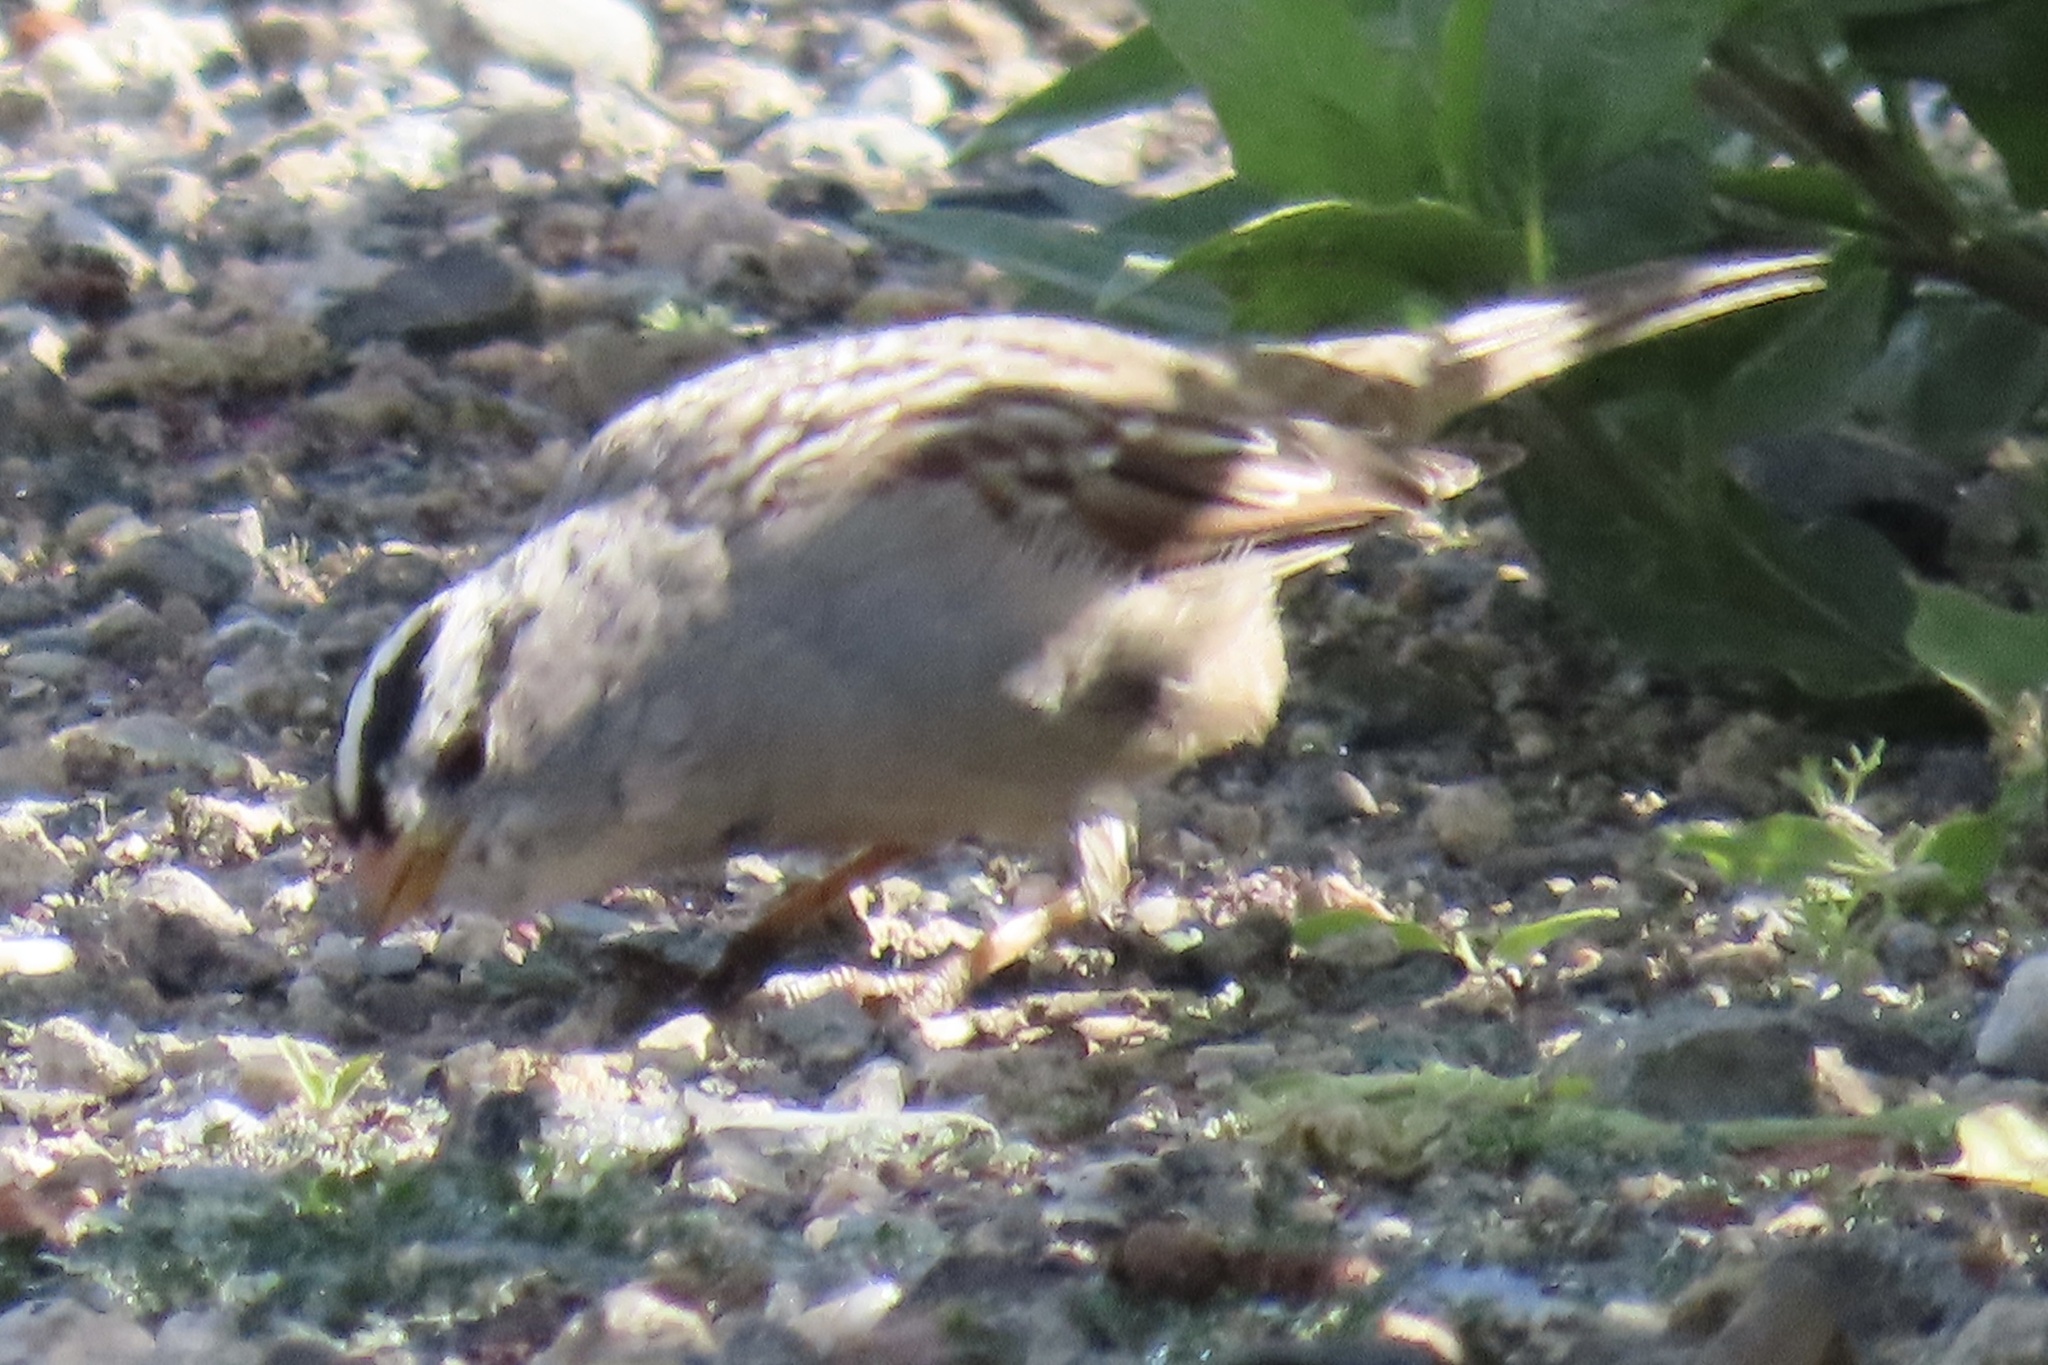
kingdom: Animalia
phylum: Chordata
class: Aves
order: Passeriformes
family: Passerellidae
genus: Zonotrichia
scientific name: Zonotrichia leucophrys
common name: White-crowned sparrow
